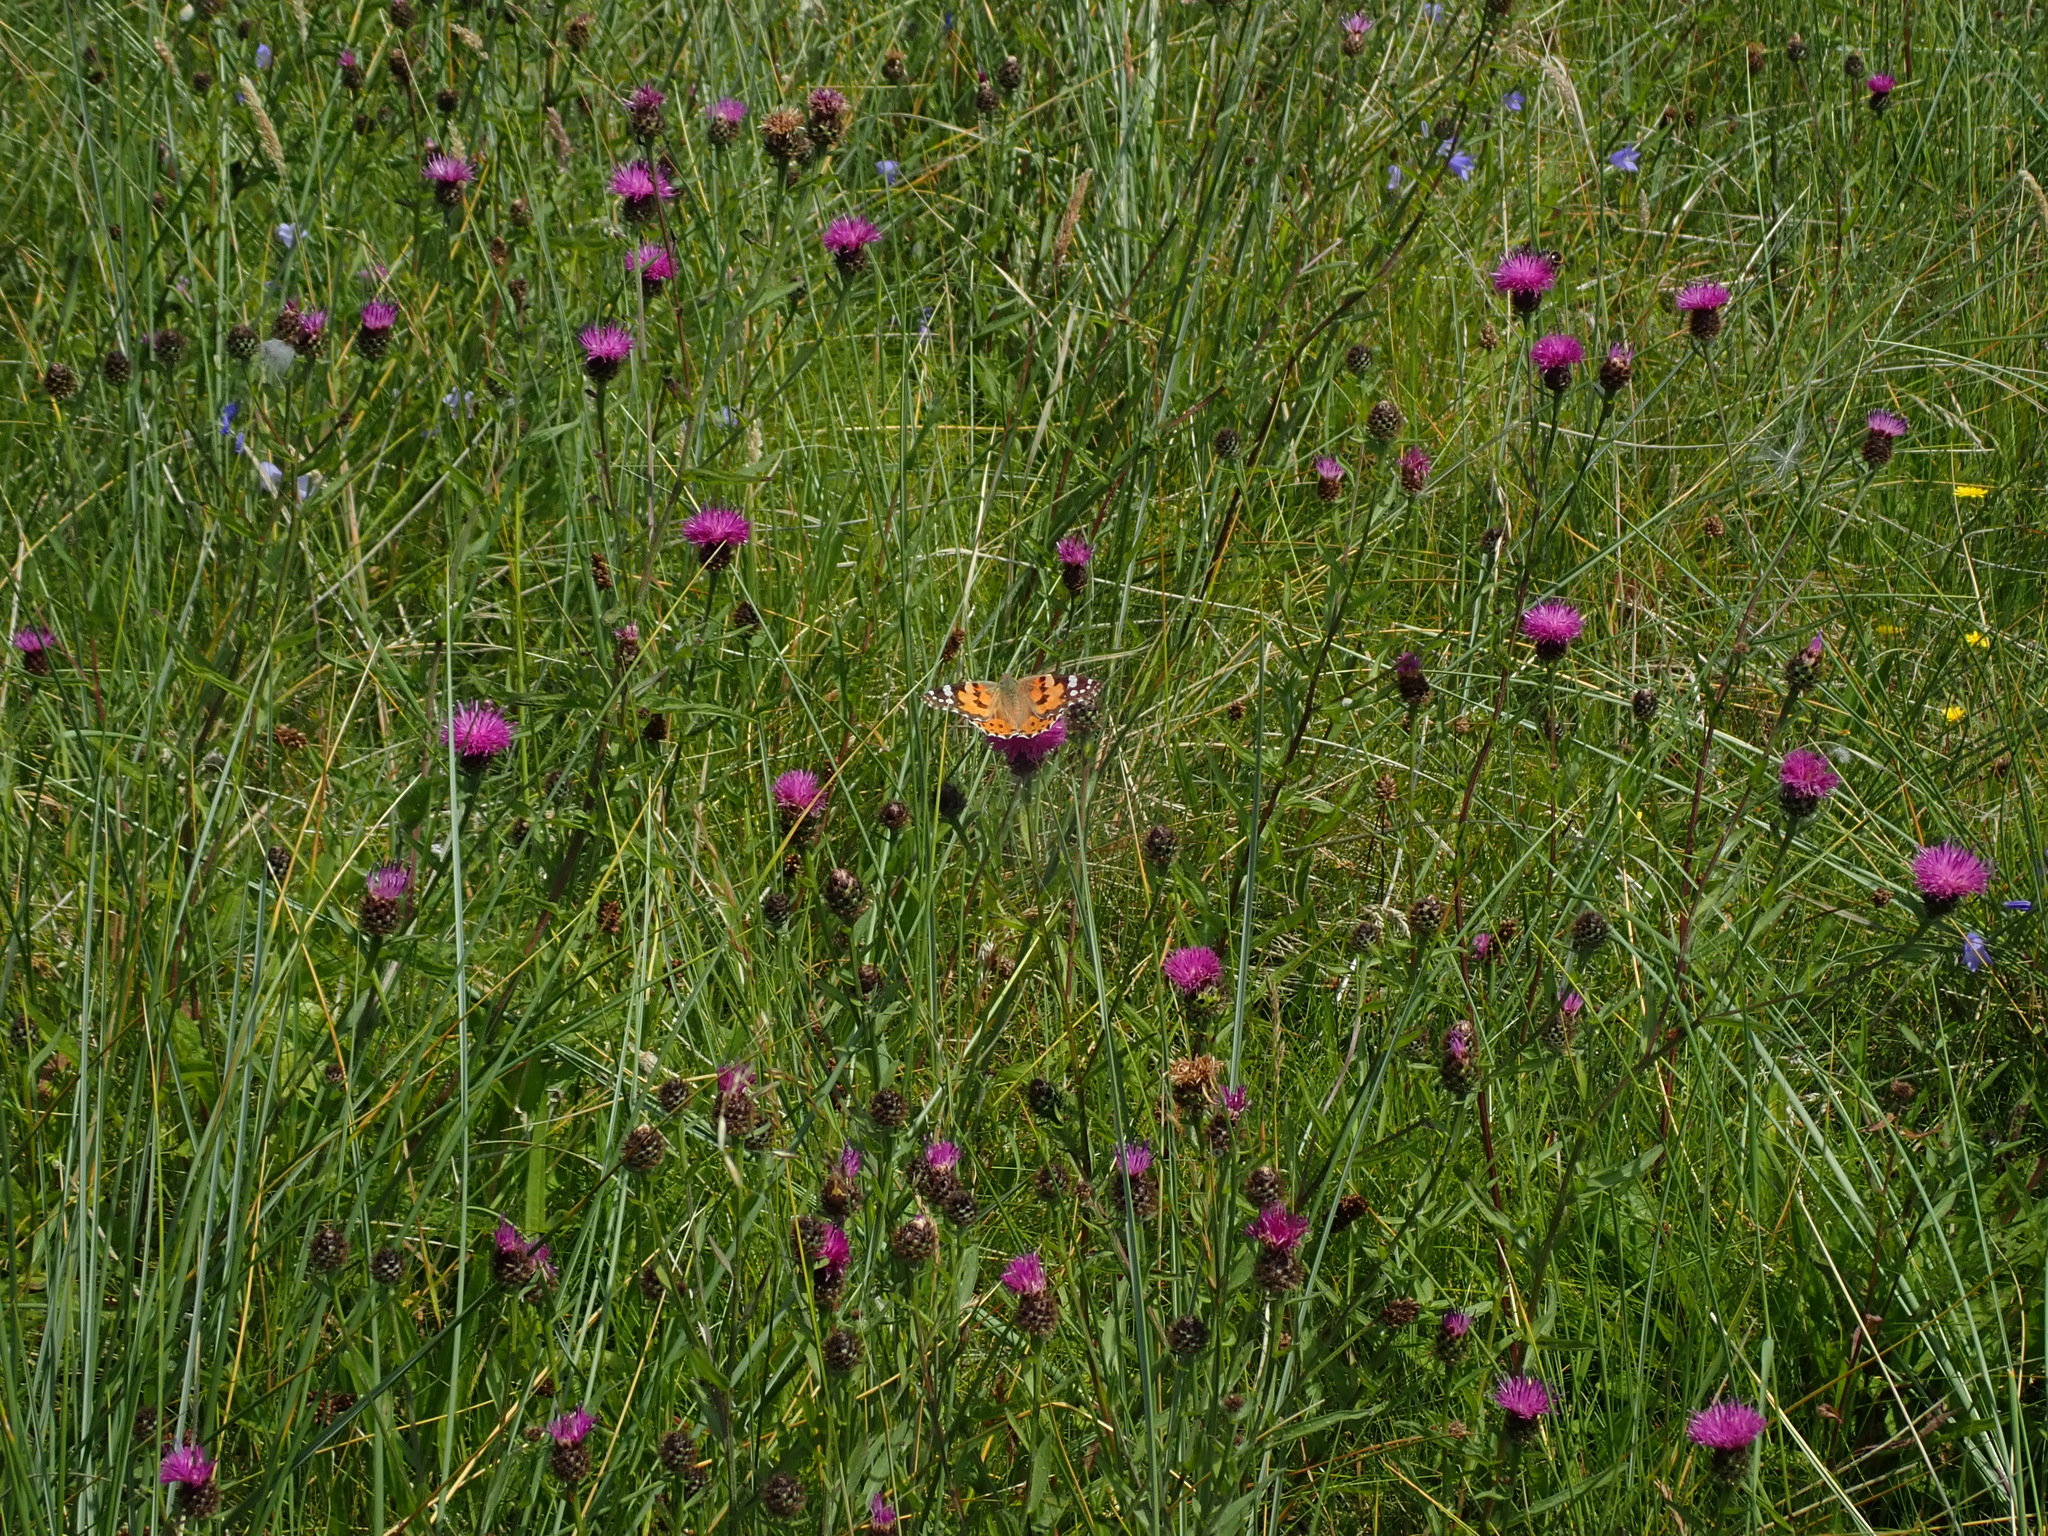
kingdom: Animalia
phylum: Arthropoda
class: Insecta
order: Lepidoptera
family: Nymphalidae
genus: Vanessa
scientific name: Vanessa cardui
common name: Painted lady
